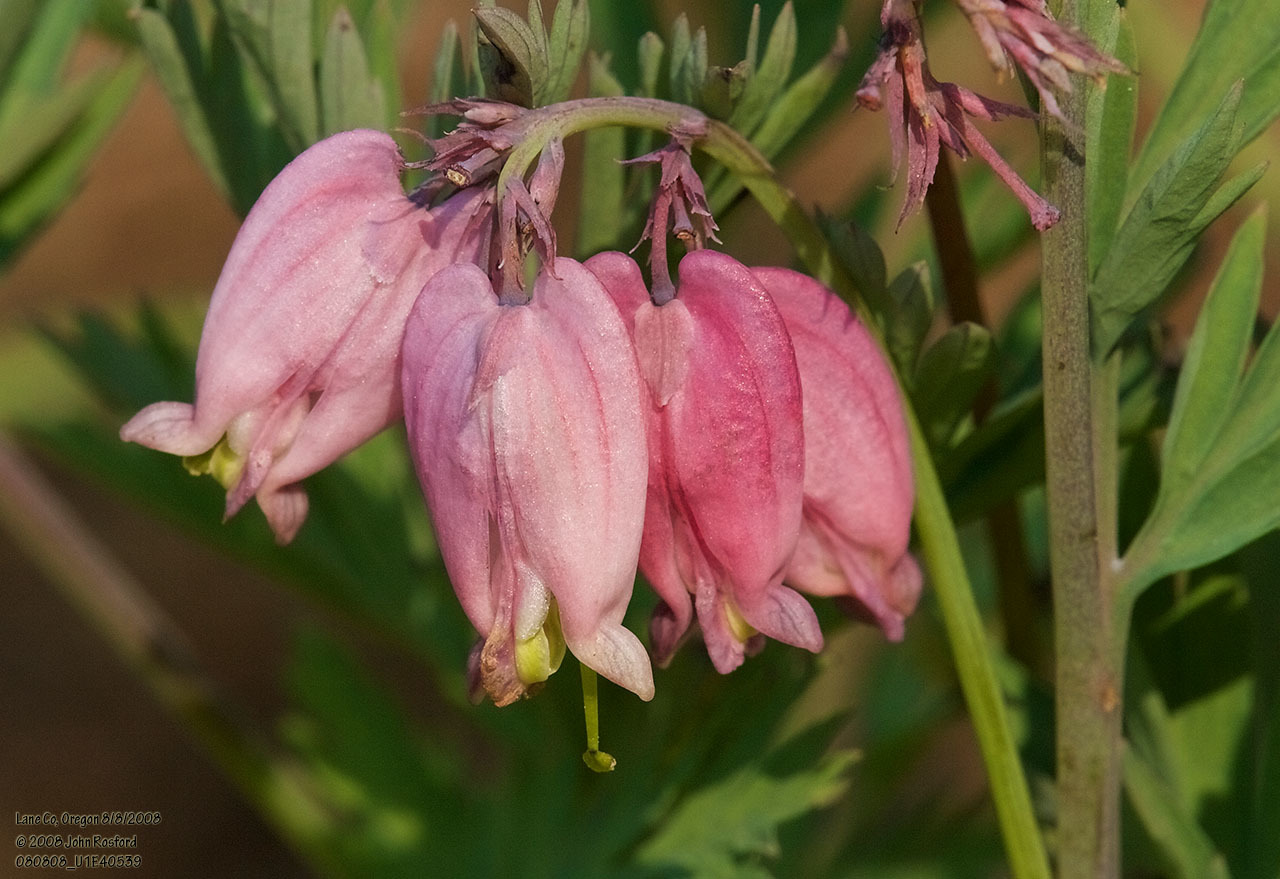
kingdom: Plantae
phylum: Tracheophyta
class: Magnoliopsida
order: Ranunculales
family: Papaveraceae
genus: Dicentra
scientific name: Dicentra formosa
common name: Bleeding-heart
